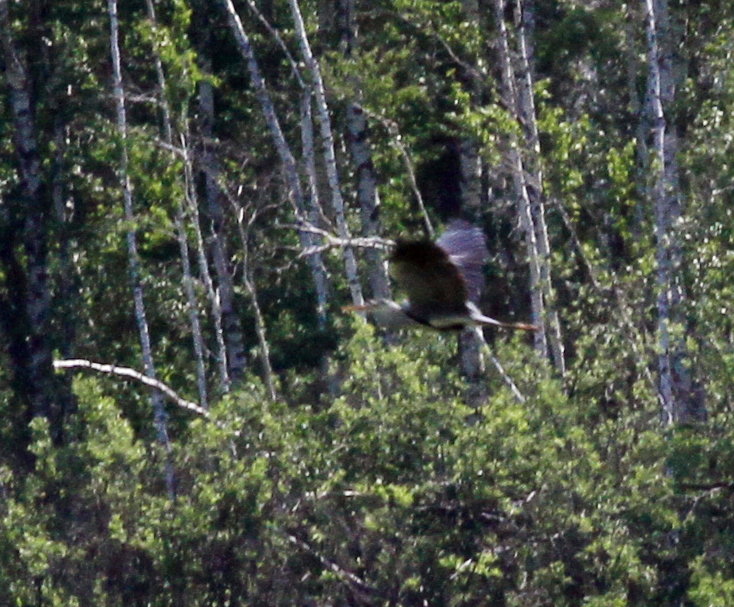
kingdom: Animalia
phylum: Chordata
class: Aves
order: Pelecaniformes
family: Ardeidae
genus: Ardea
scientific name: Ardea cinerea
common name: Grey heron
